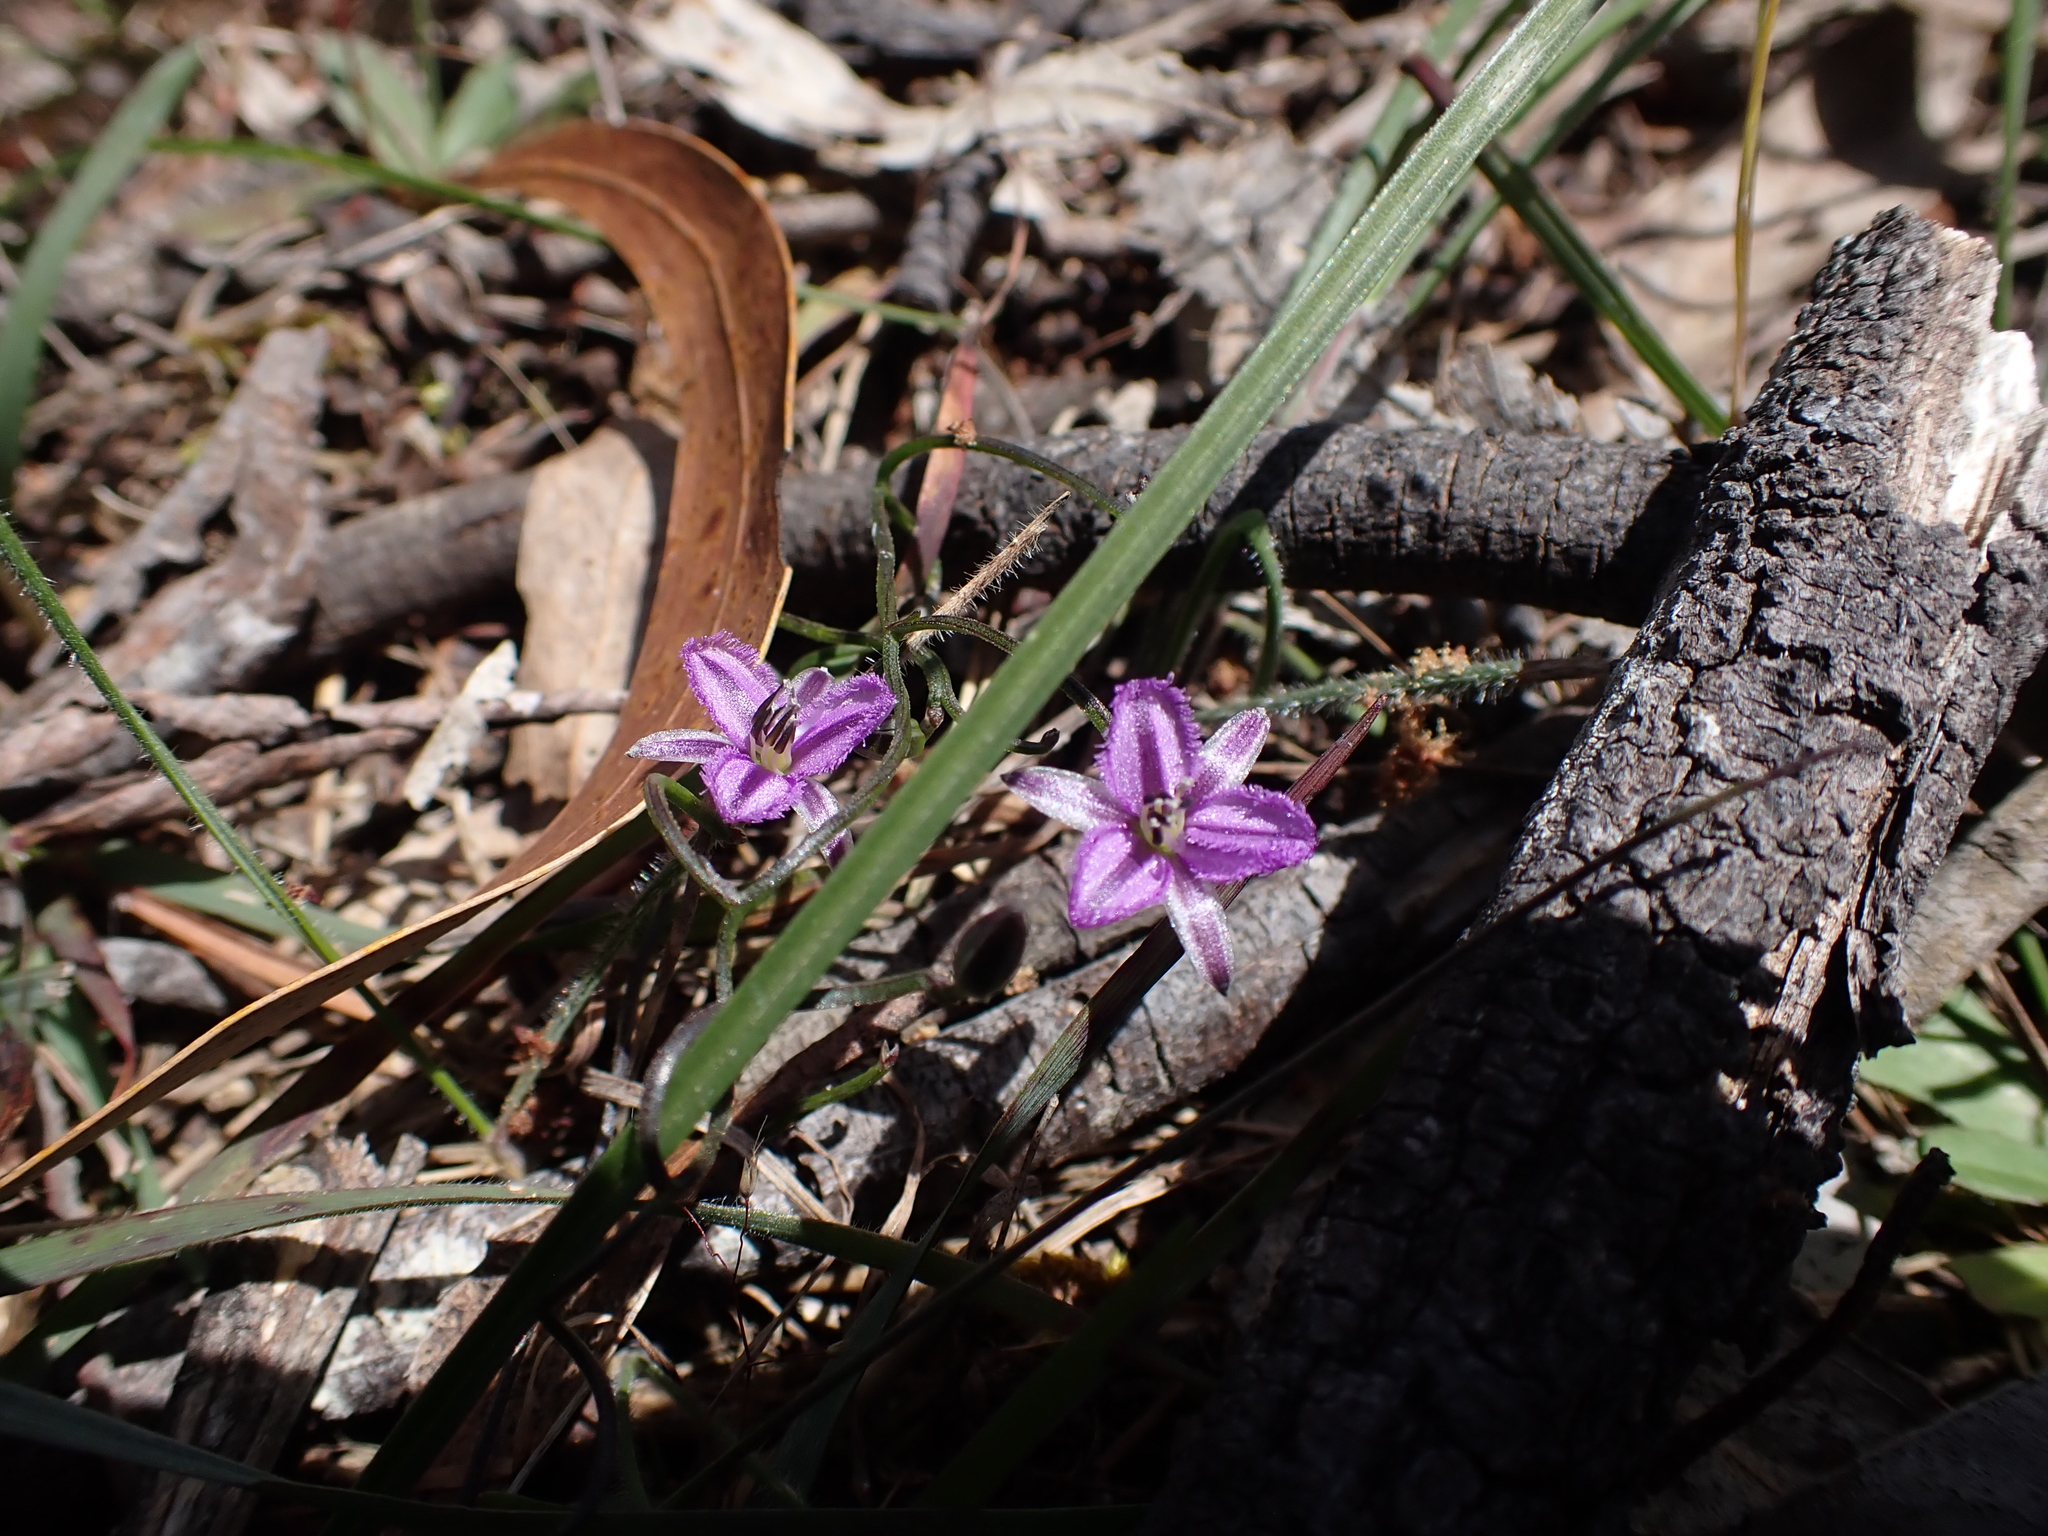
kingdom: Plantae
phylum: Tracheophyta
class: Liliopsida
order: Asparagales
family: Asparagaceae
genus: Thysanotus
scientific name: Thysanotus patersonii
